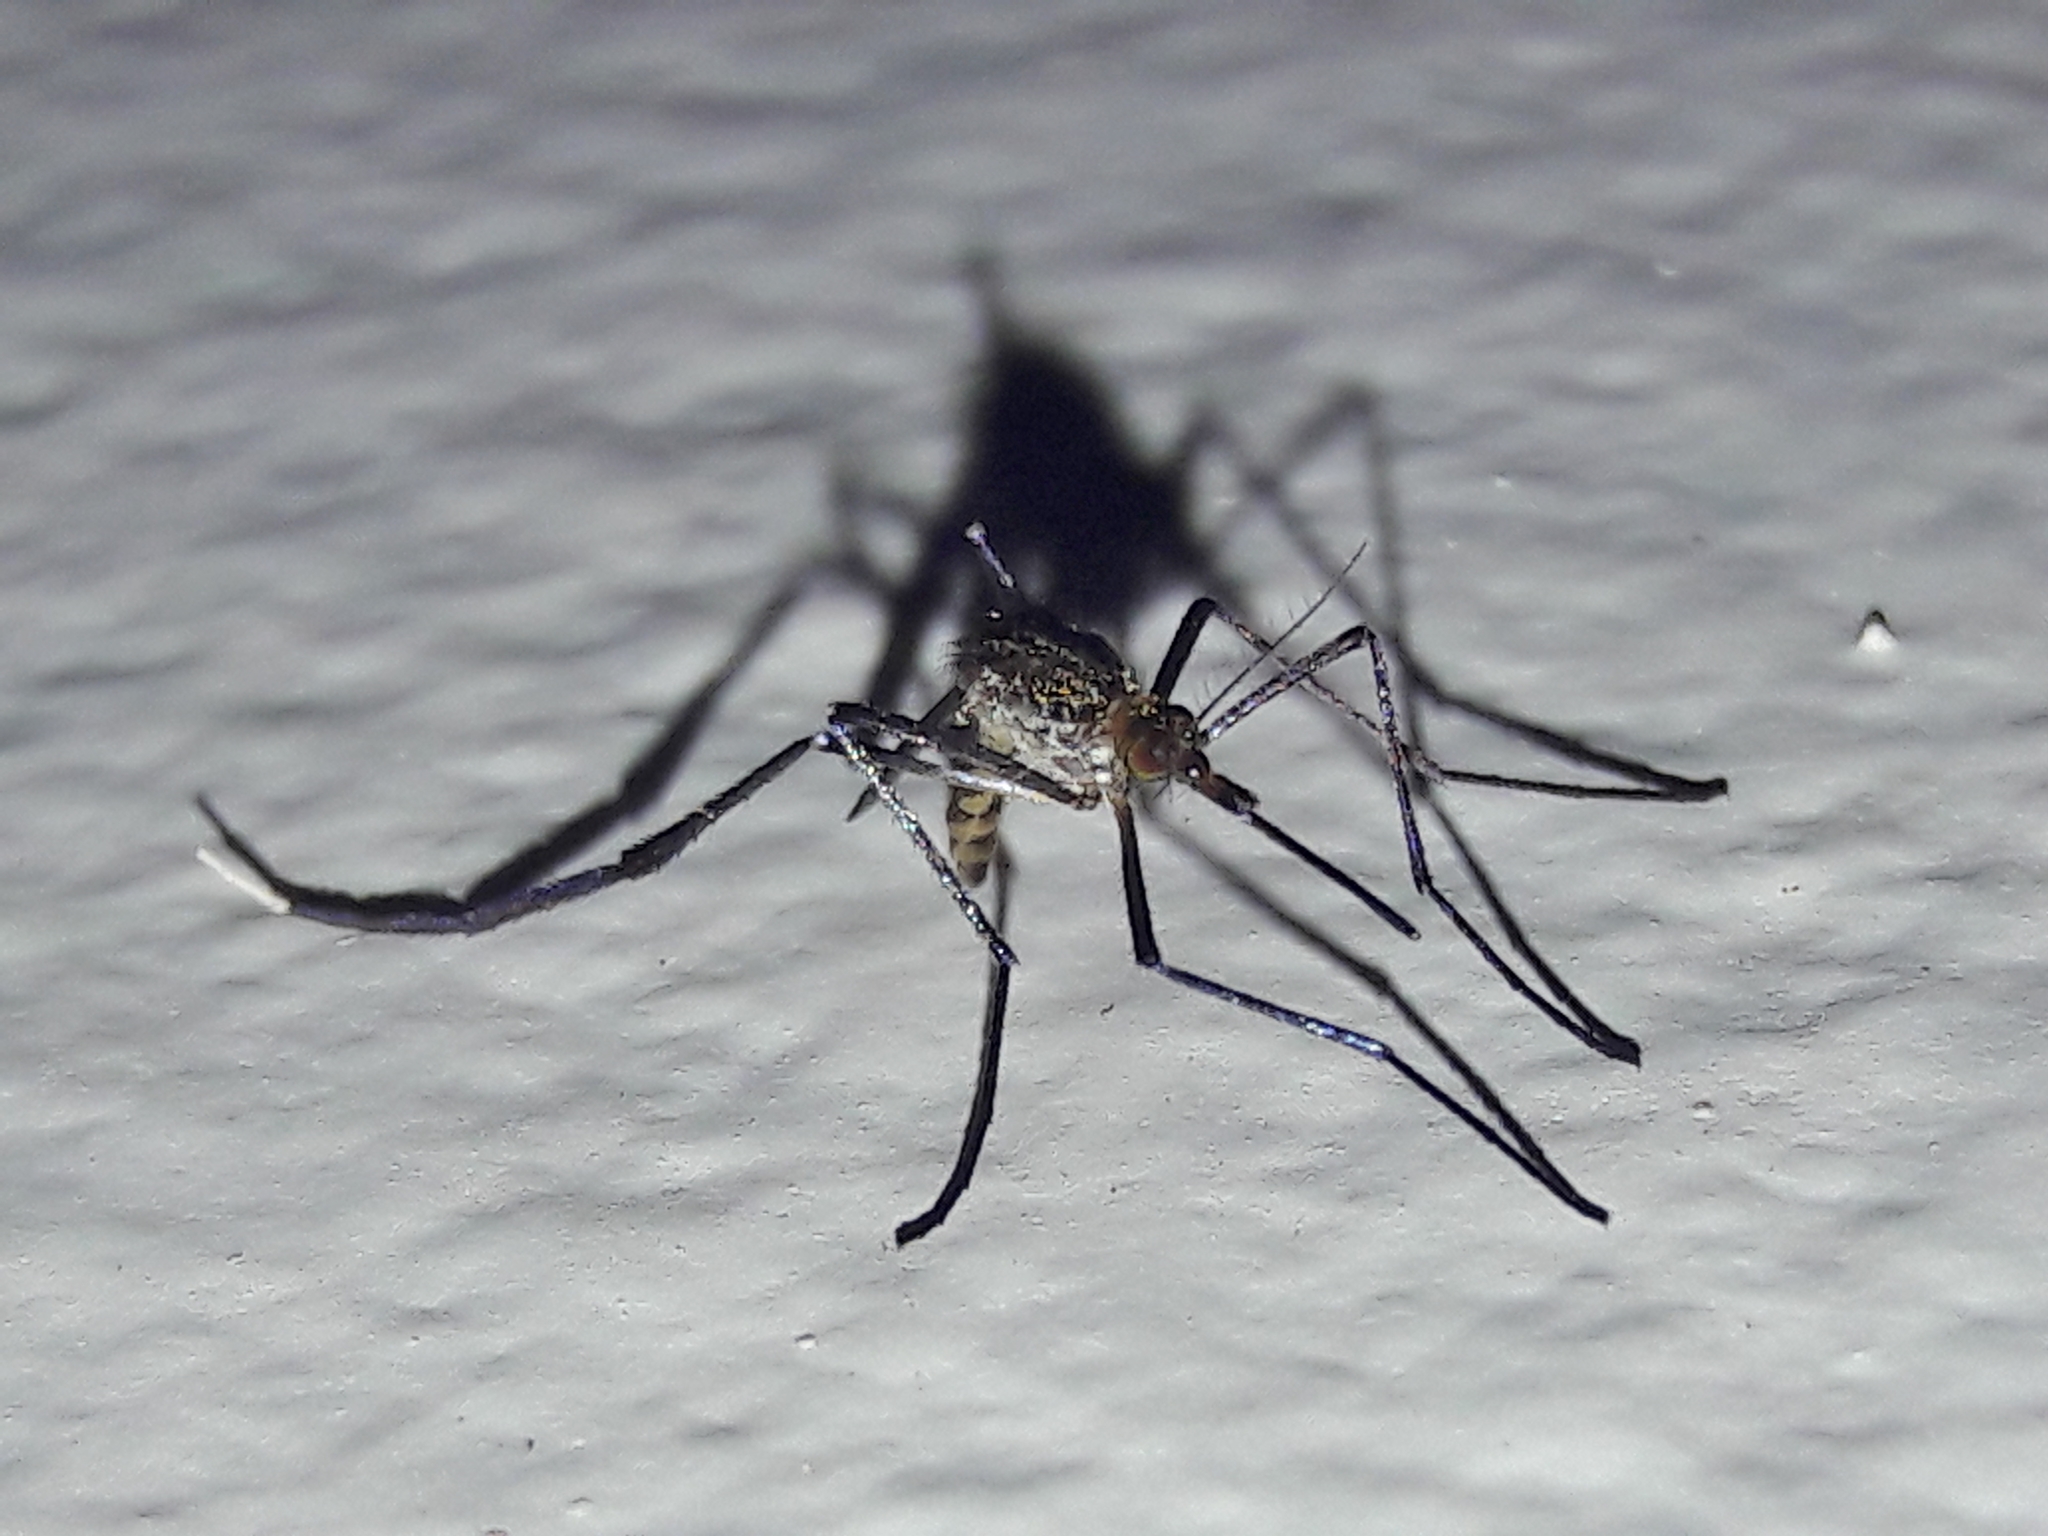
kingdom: Animalia
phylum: Arthropoda
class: Insecta
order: Diptera
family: Culicidae
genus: Psorophora
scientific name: Psorophora ferox
